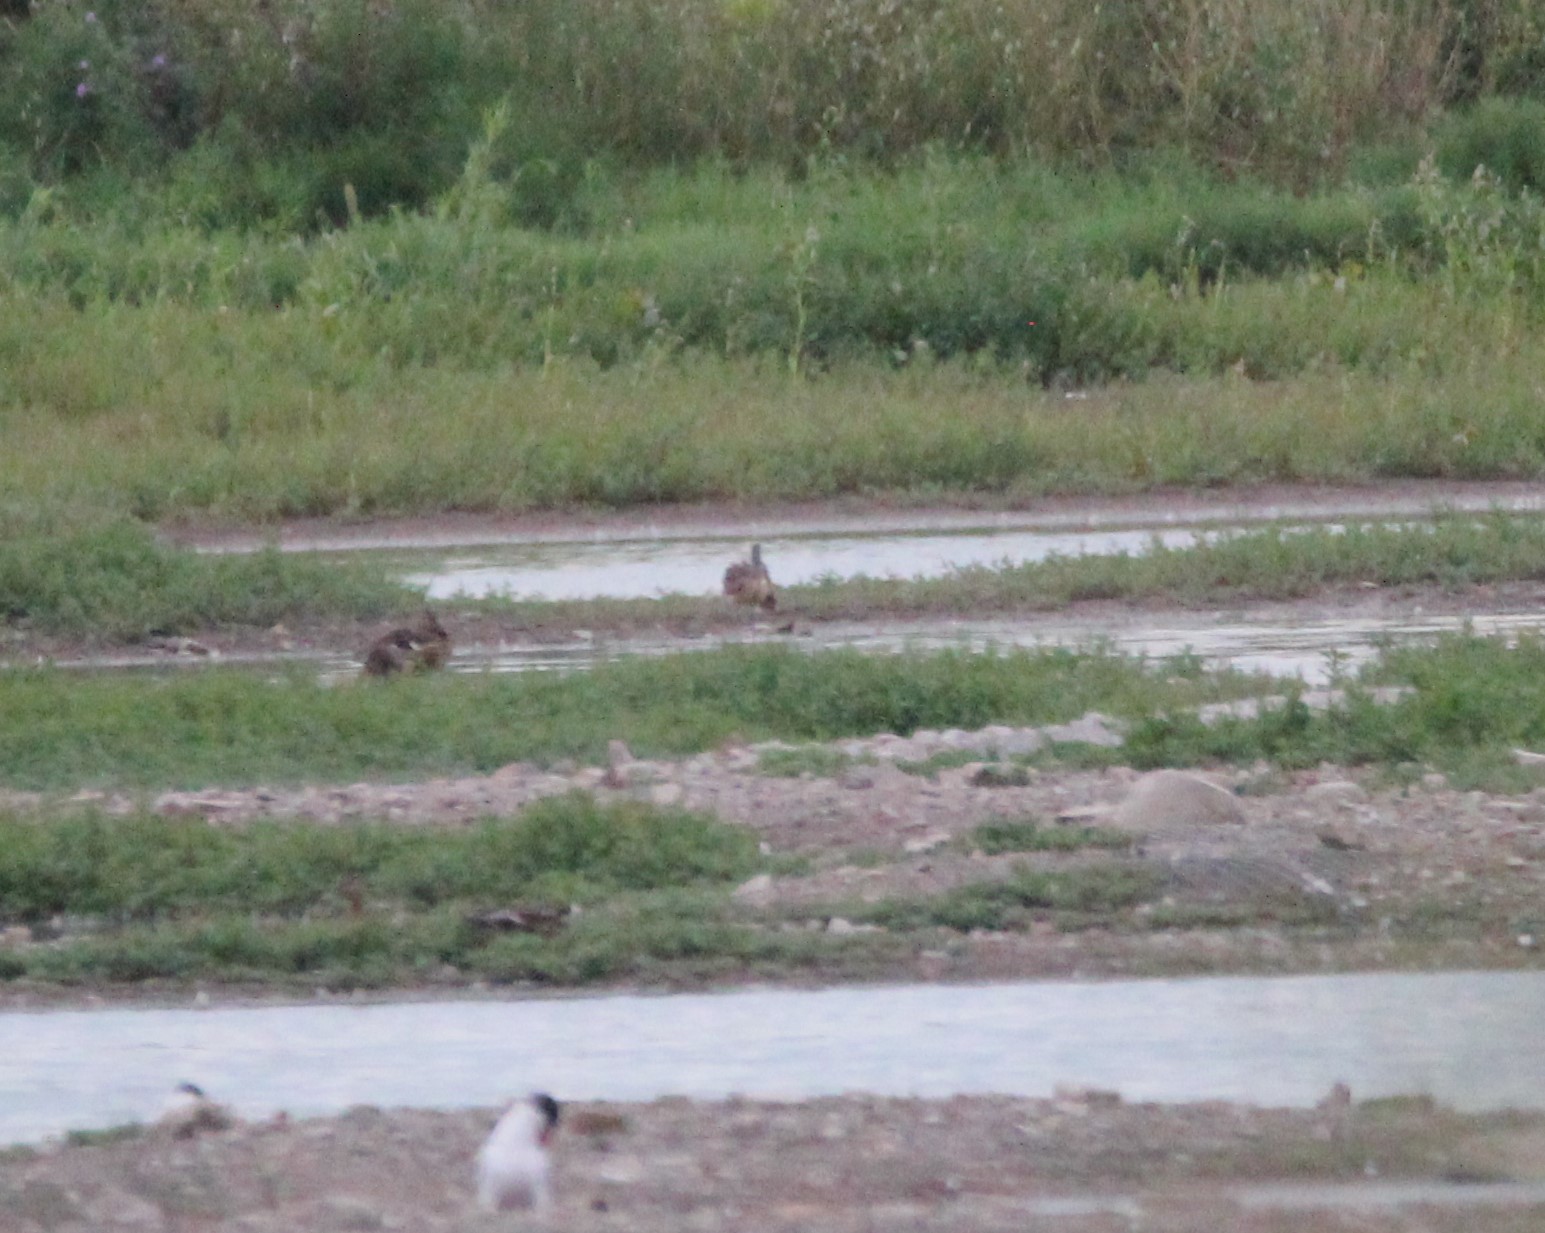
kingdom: Animalia
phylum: Chordata
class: Aves
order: Charadriiformes
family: Scolopacidae
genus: Limosa
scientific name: Limosa fedoa
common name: Marbled godwit
